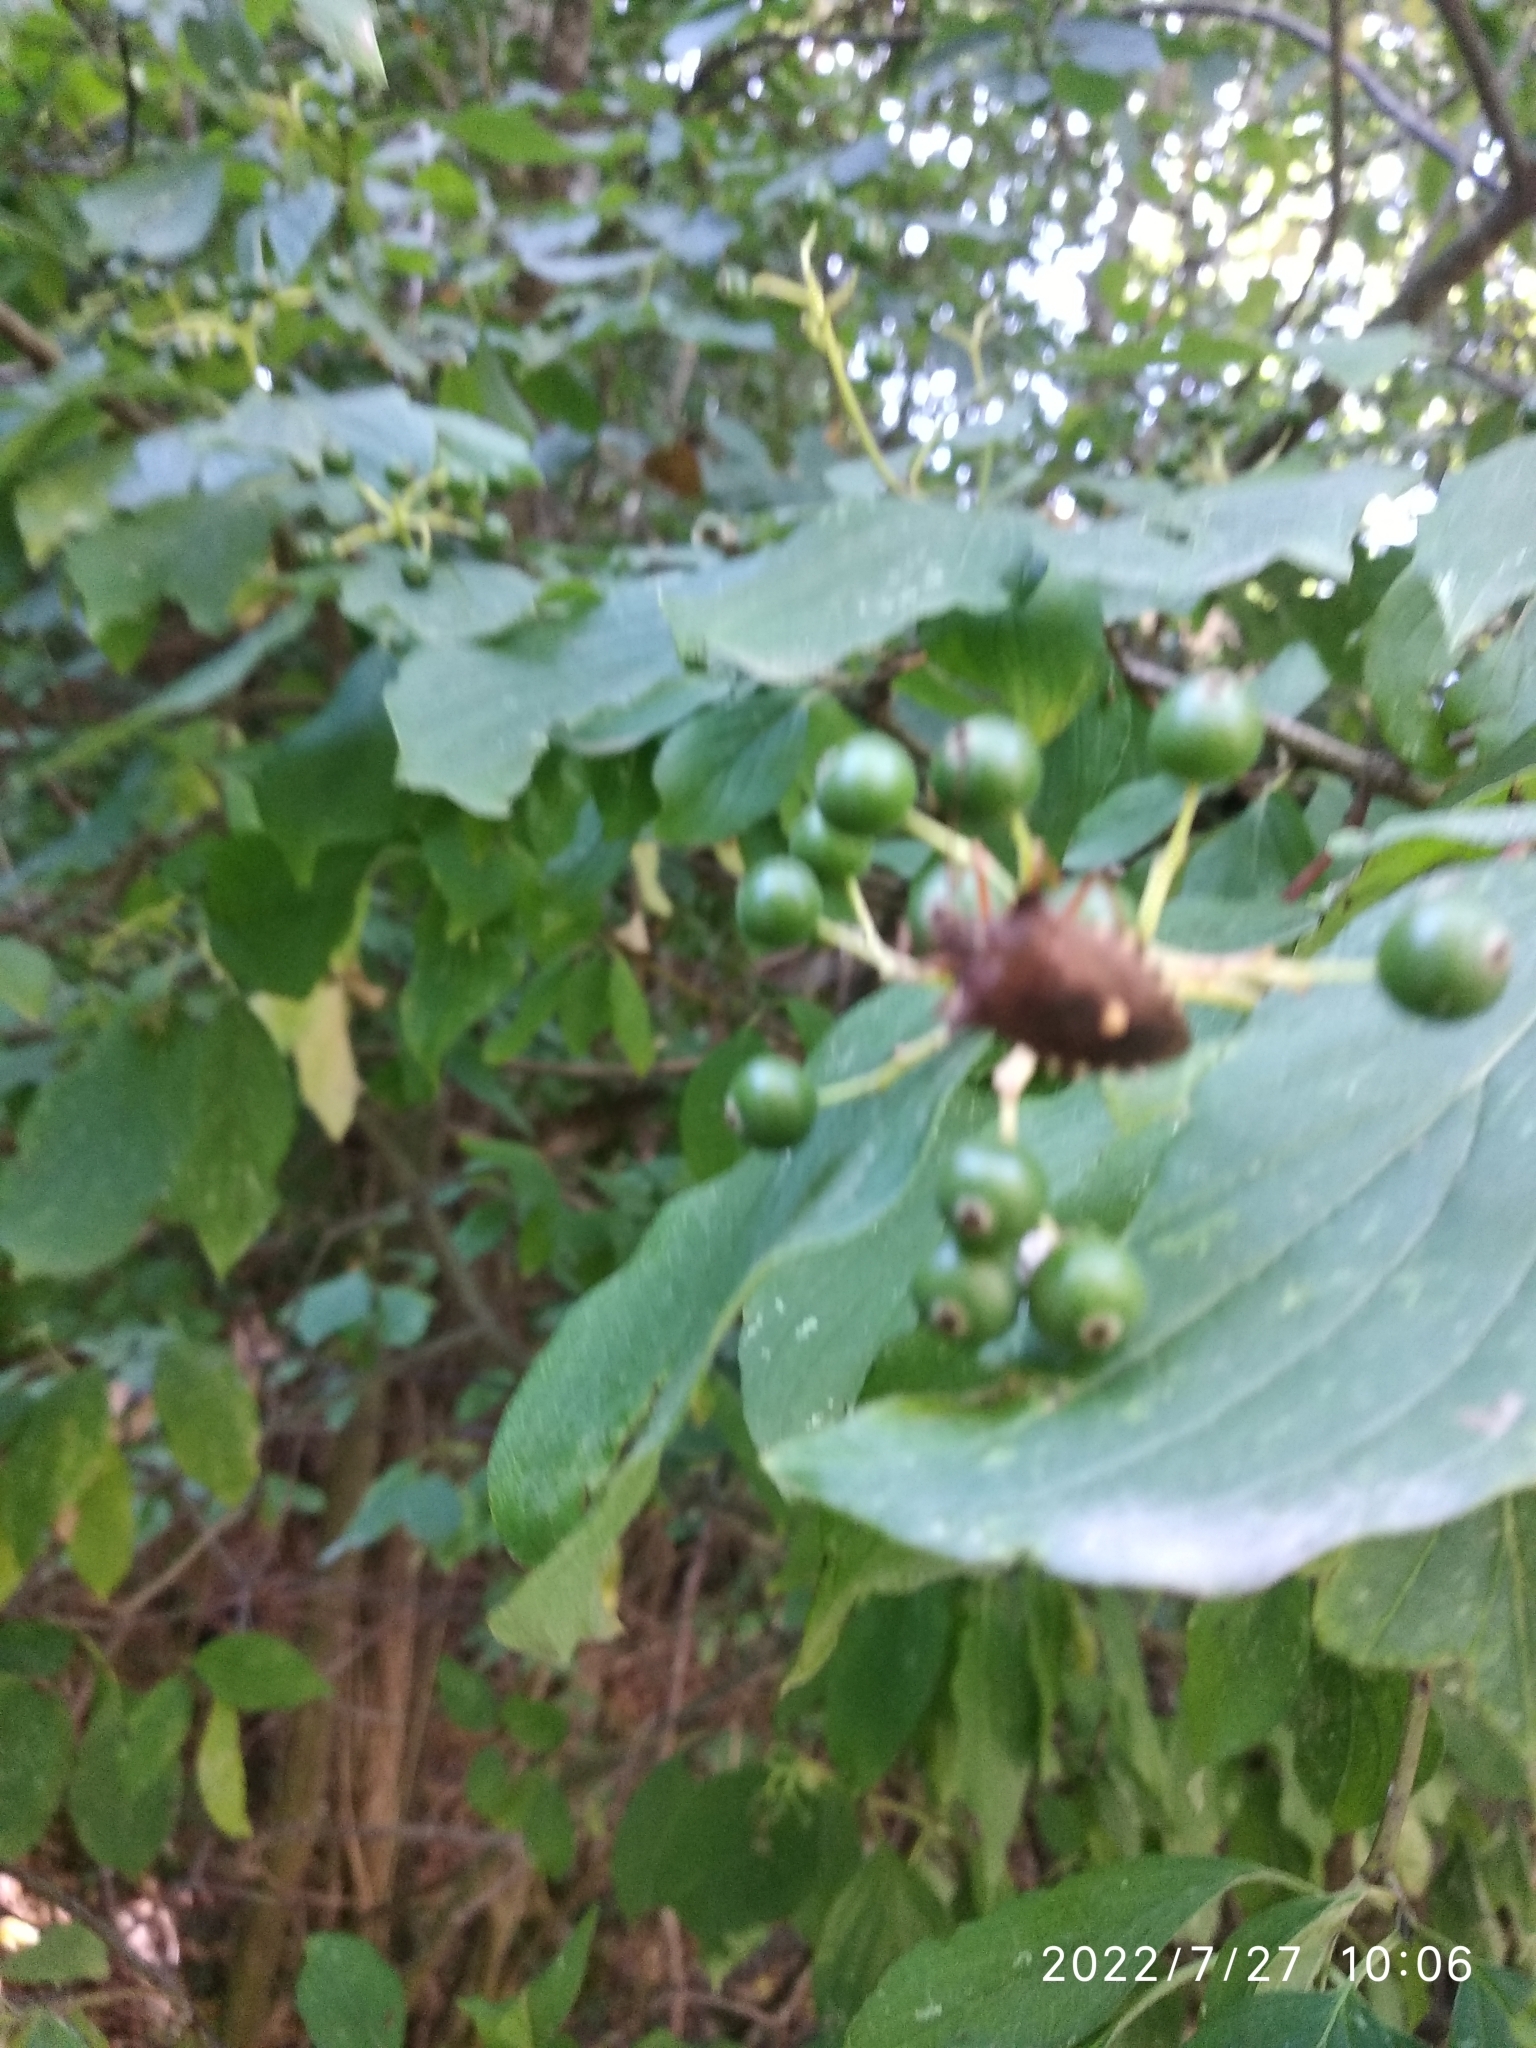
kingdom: Animalia
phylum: Arthropoda
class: Insecta
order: Hemiptera
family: Pentatomidae
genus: Pentatoma
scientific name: Pentatoma rufipes
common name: Forest bug
